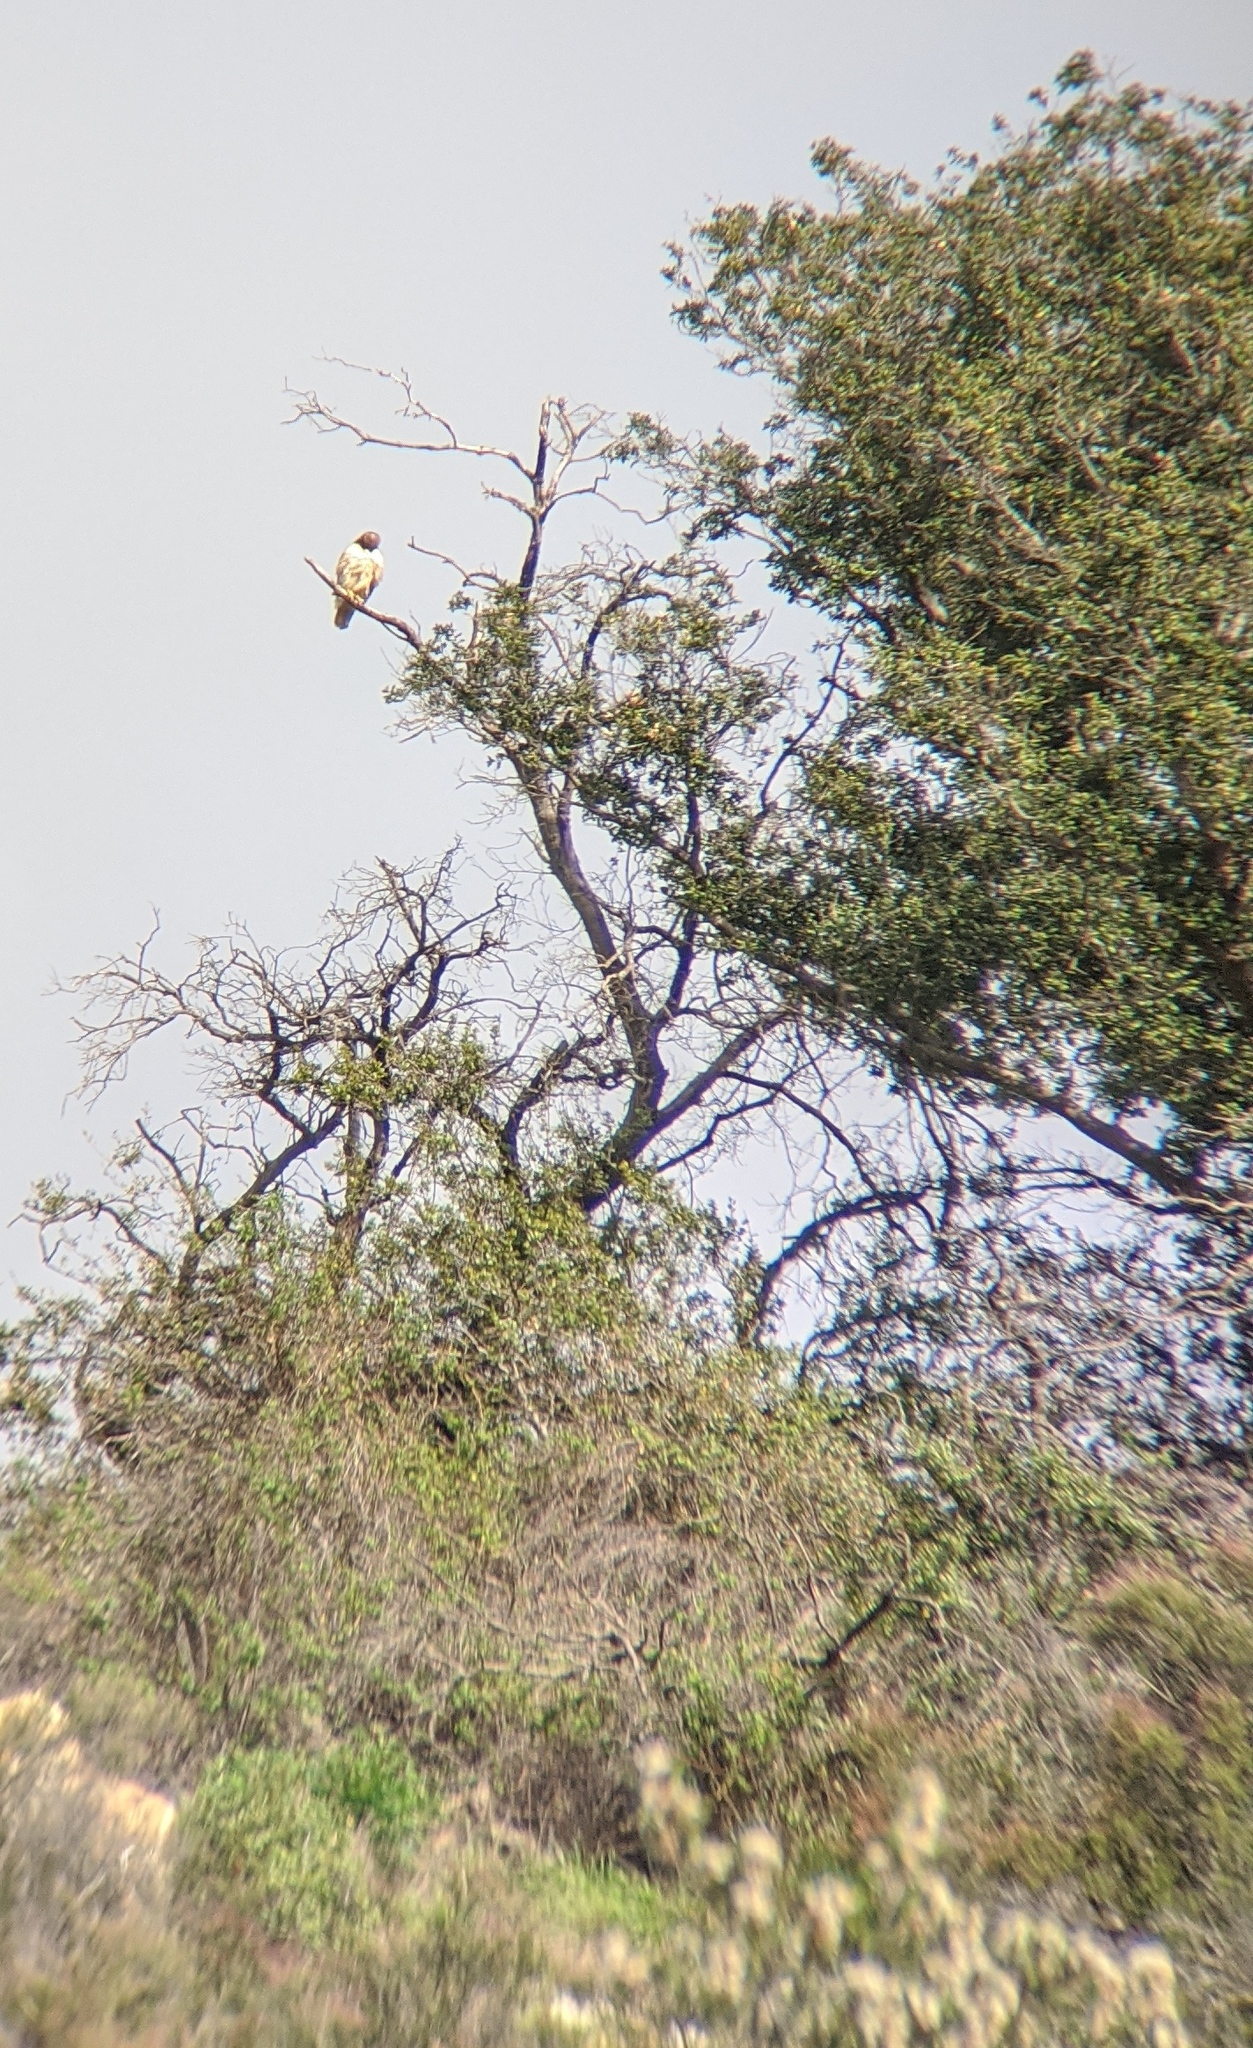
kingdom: Animalia
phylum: Chordata
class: Aves
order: Accipitriformes
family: Accipitridae
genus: Buteo
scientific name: Buteo jamaicensis
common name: Red-tailed hawk
